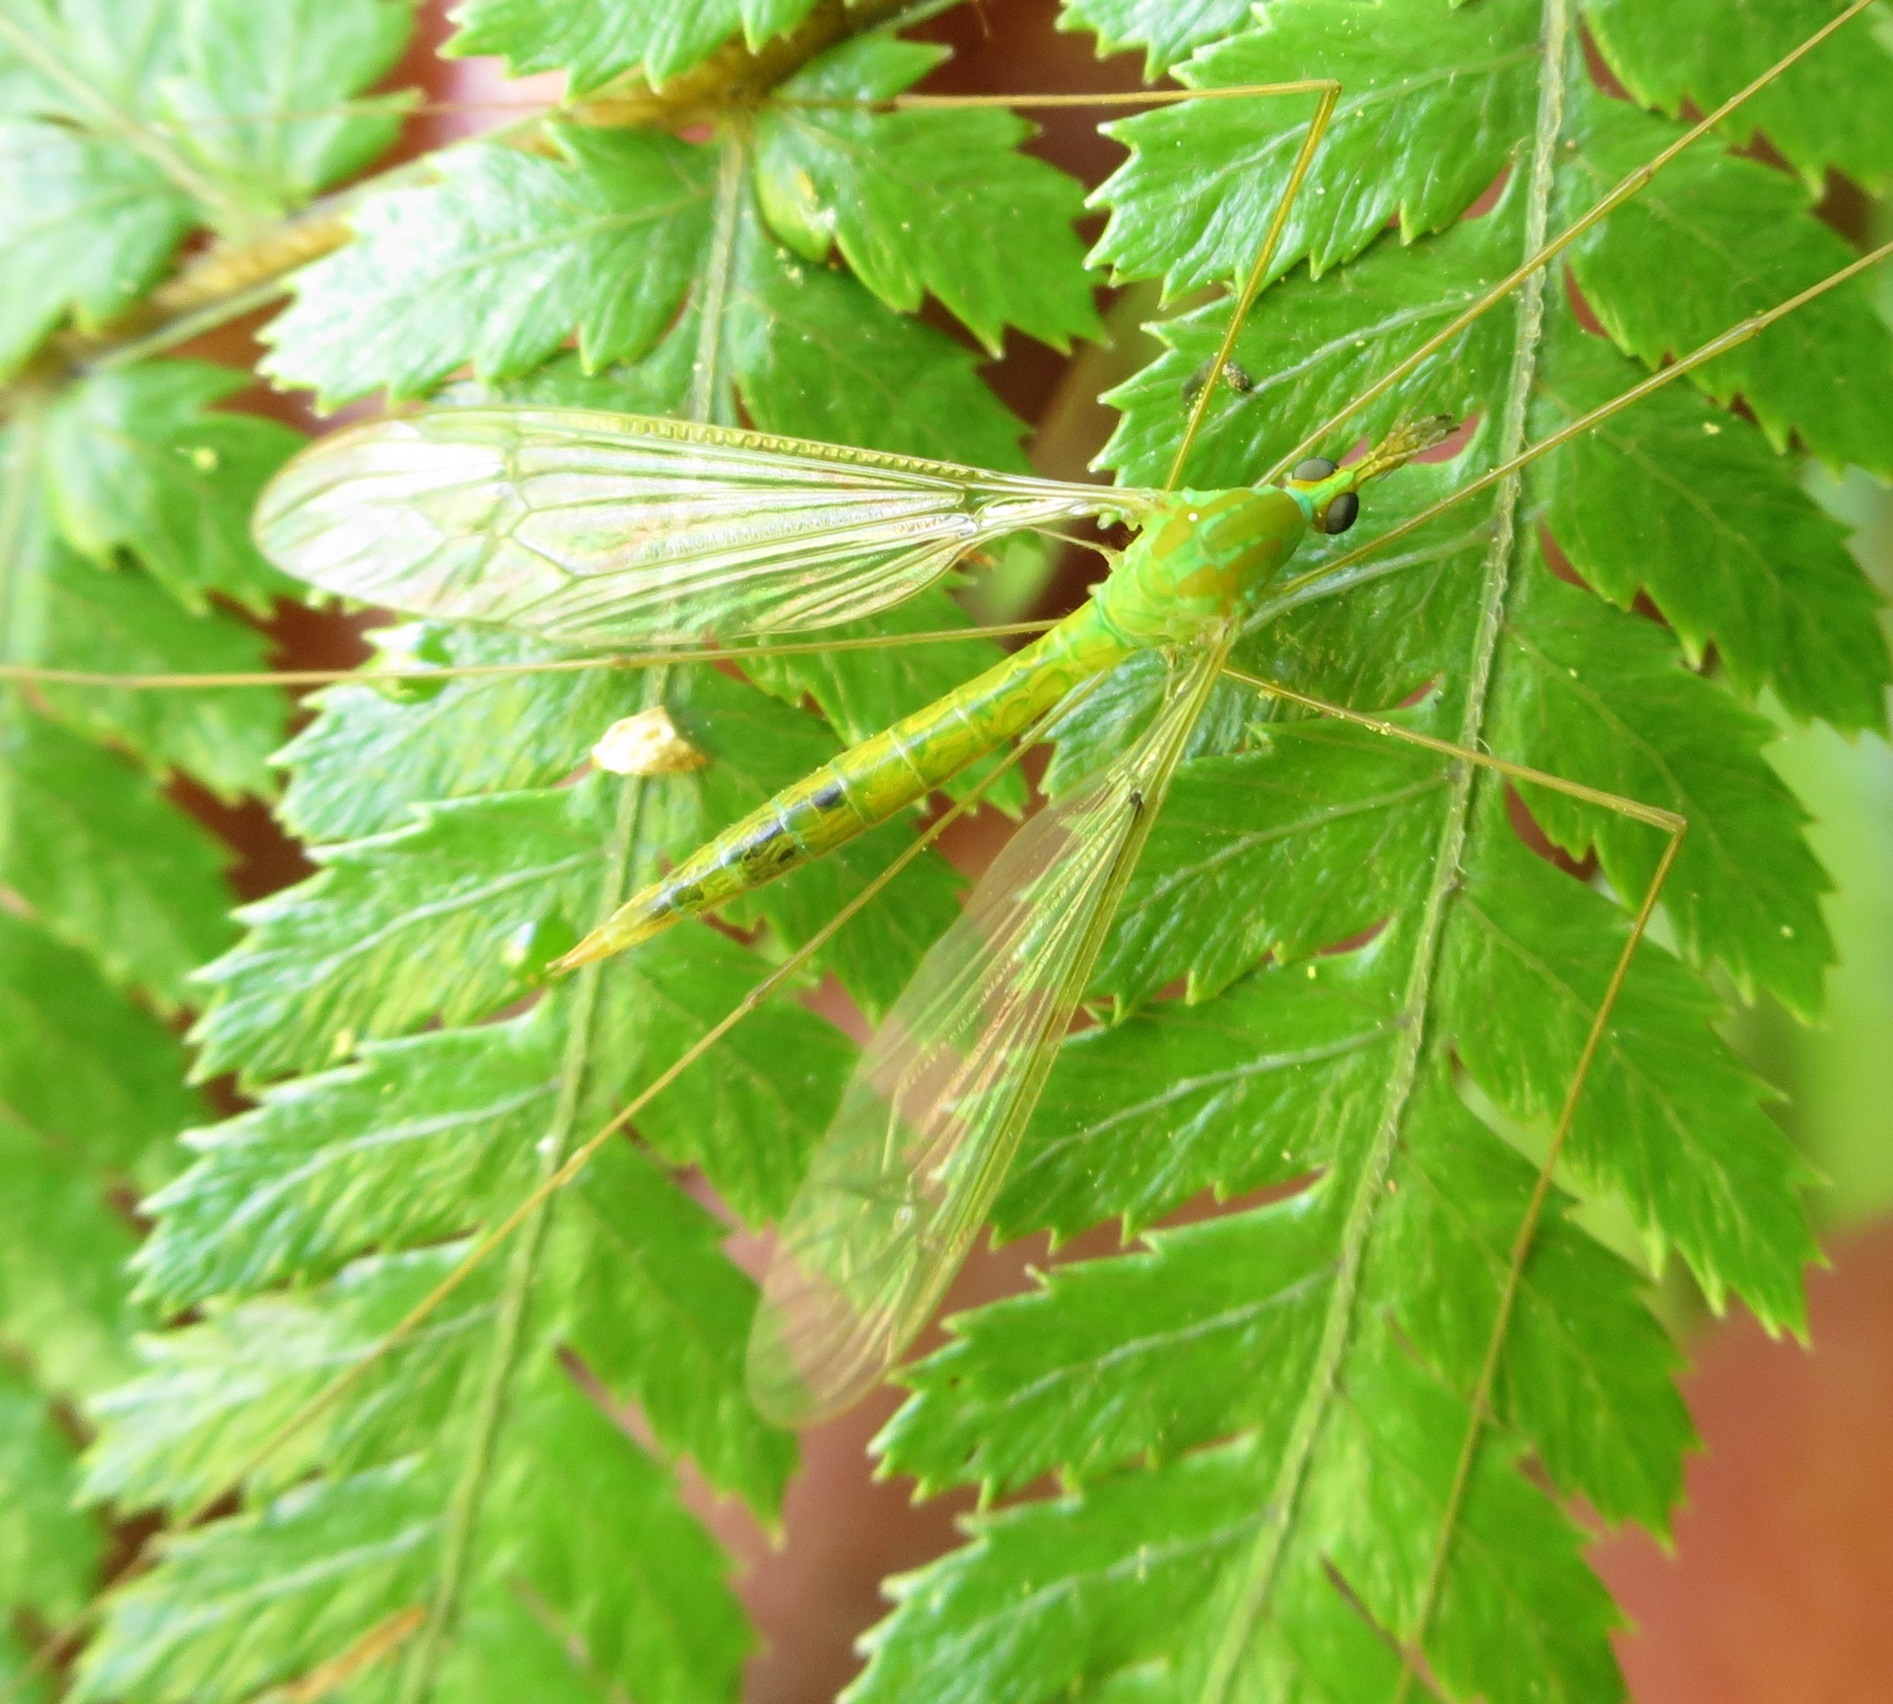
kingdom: Animalia
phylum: Arthropoda
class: Insecta
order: Diptera
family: Tipulidae
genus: Leptotarsus
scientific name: Leptotarsus virescens
